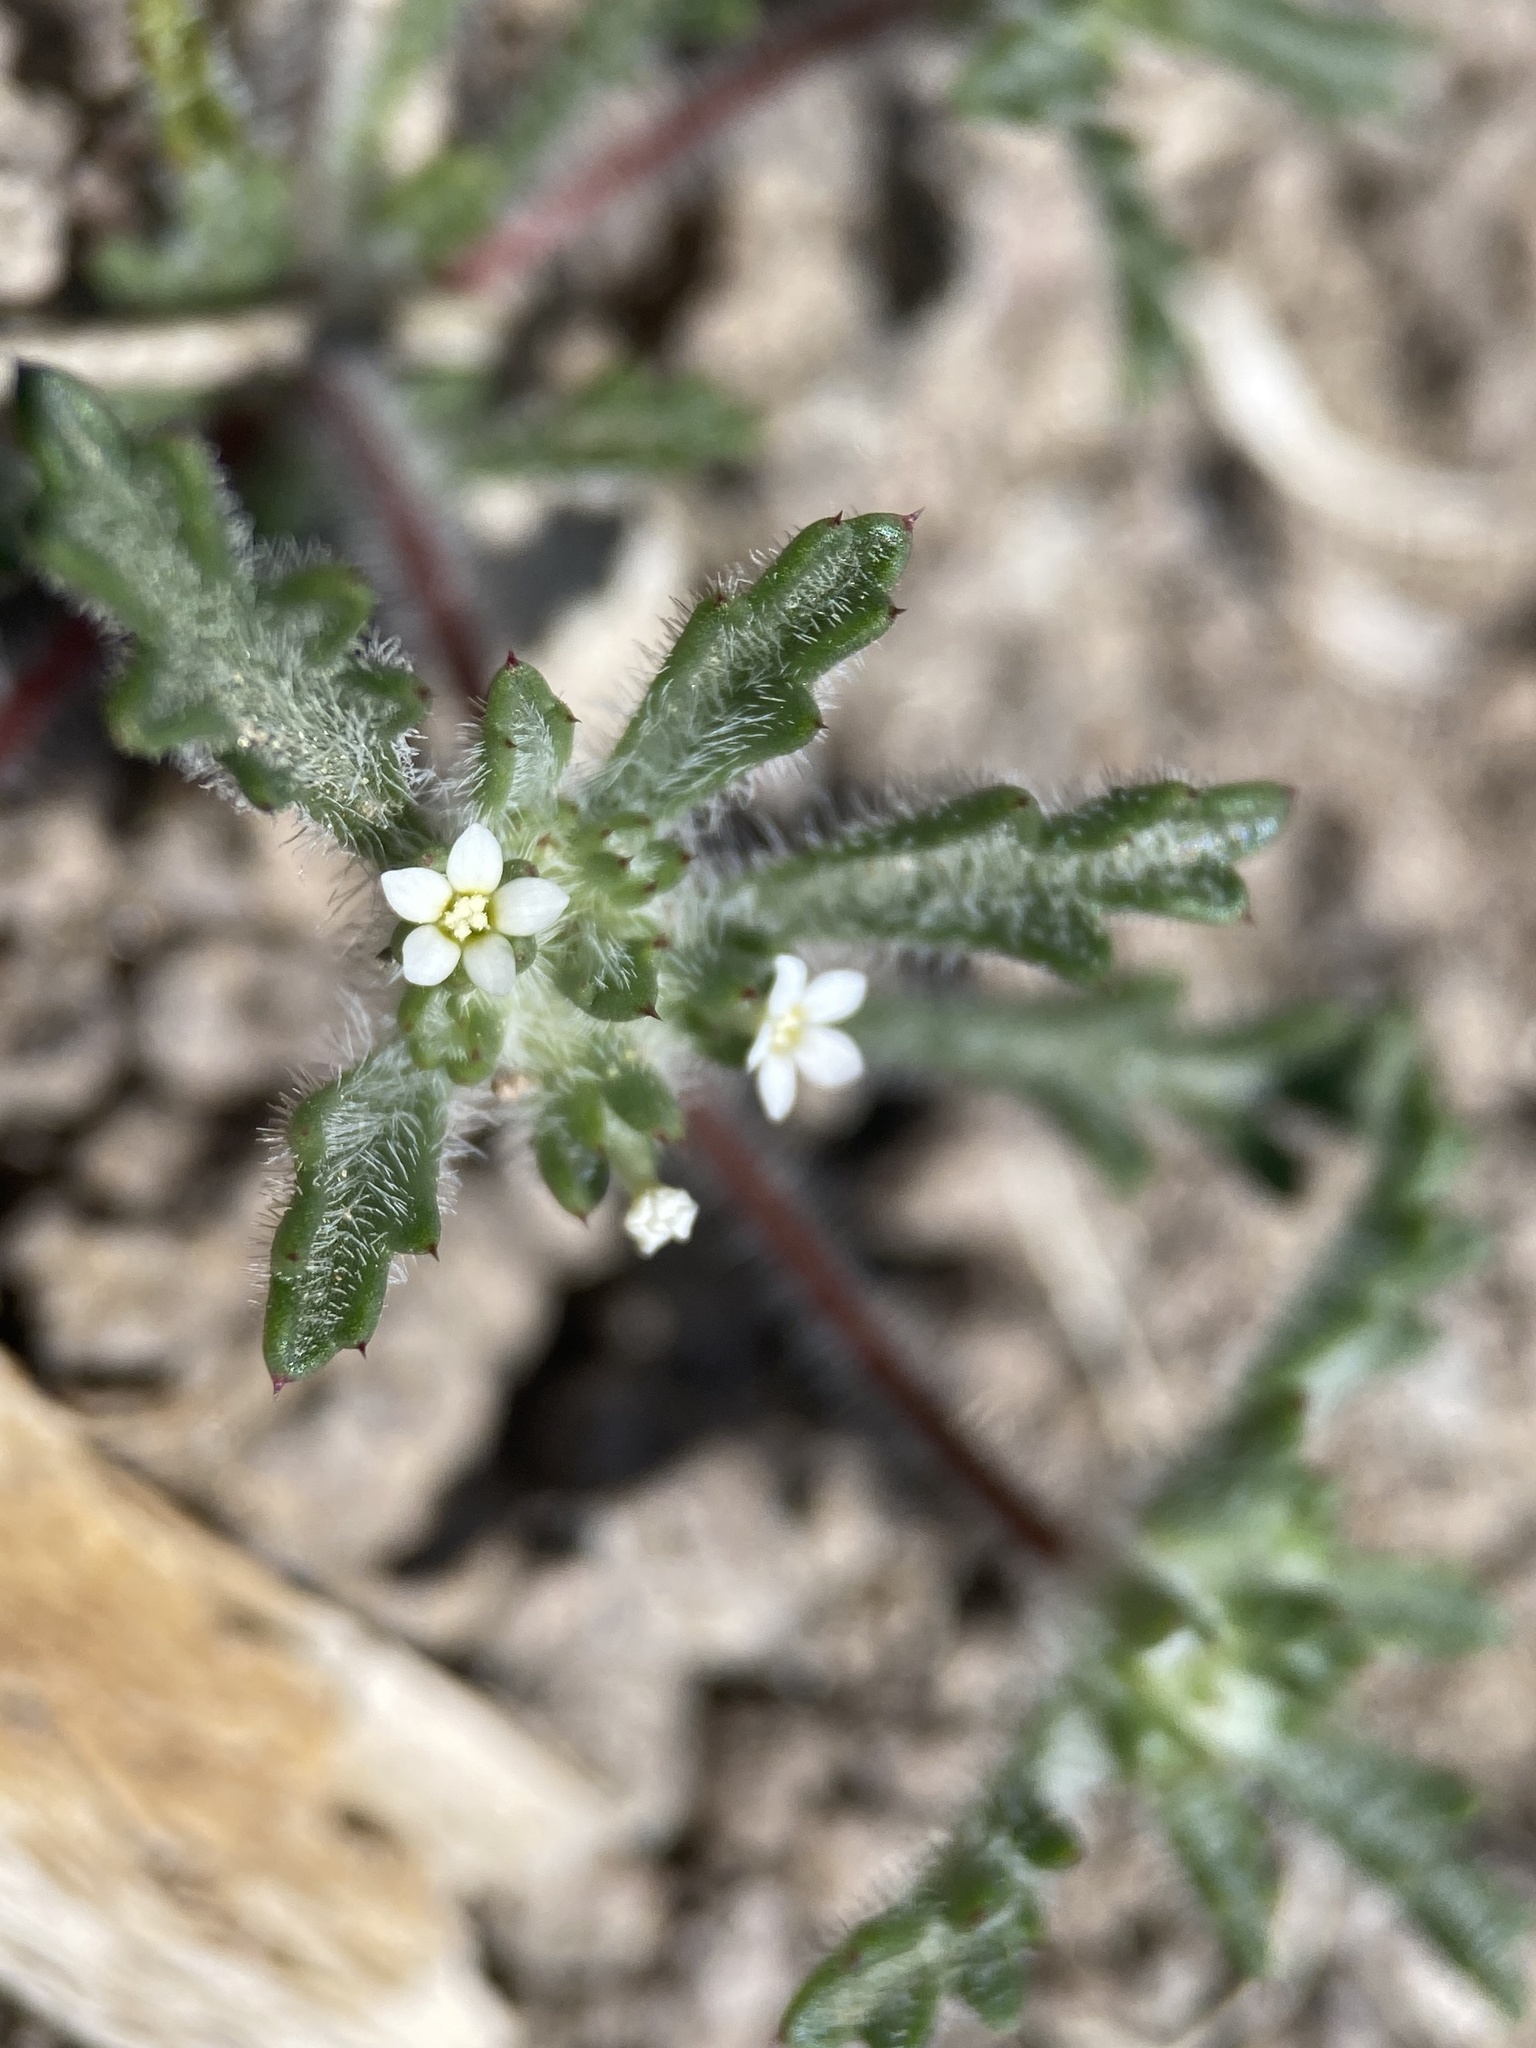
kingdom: Plantae
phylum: Tracheophyta
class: Magnoliopsida
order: Ericales
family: Polemoniaceae
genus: Ipomopsis
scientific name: Ipomopsis polycladon
